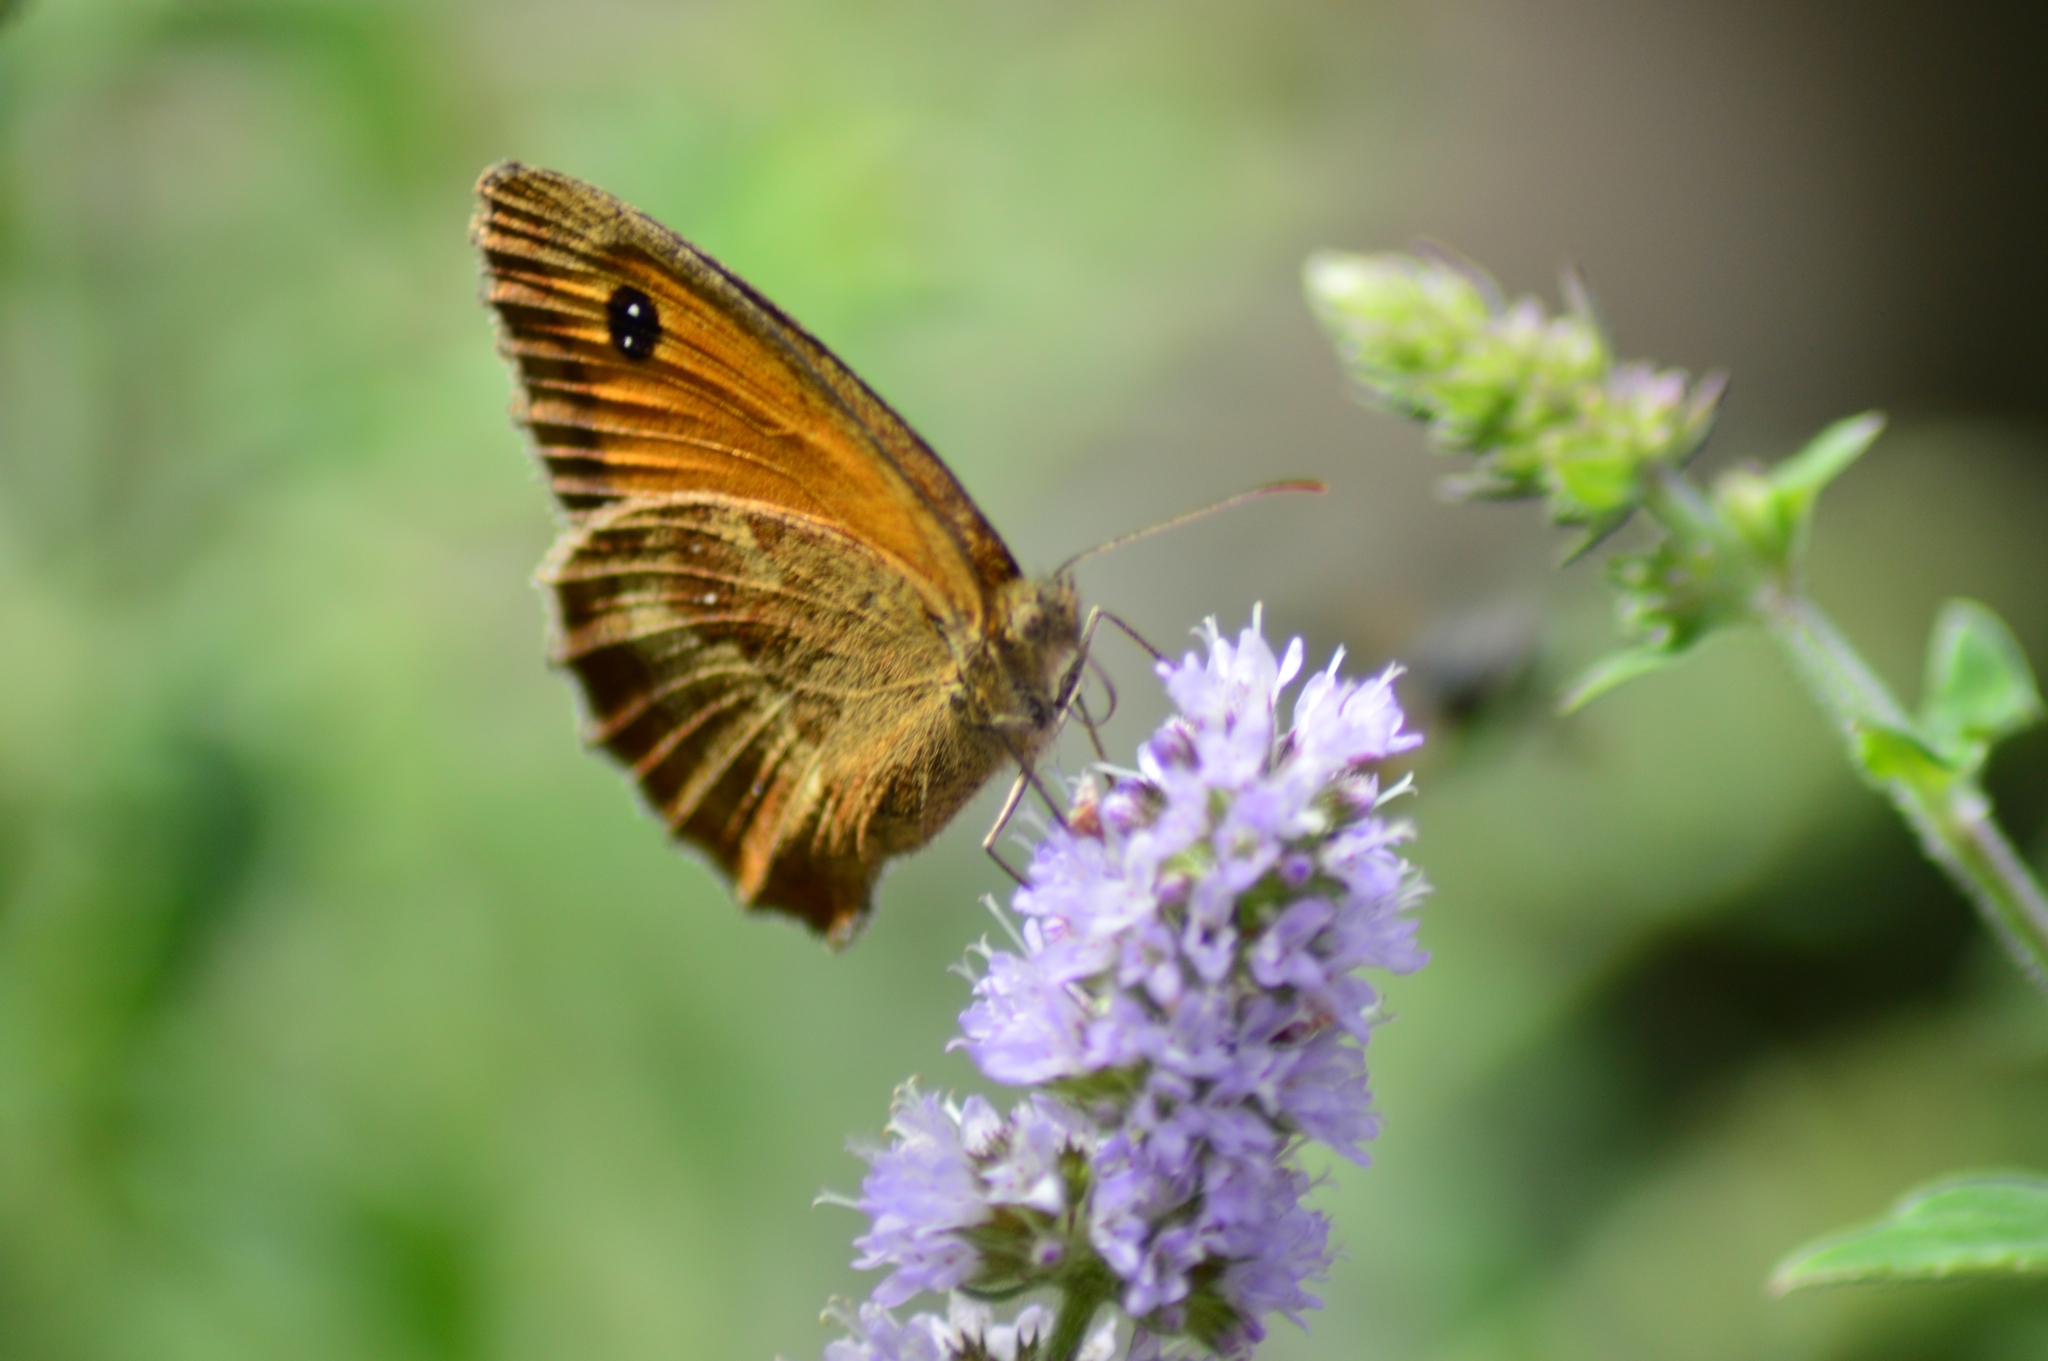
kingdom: Animalia
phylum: Arthropoda
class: Insecta
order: Lepidoptera
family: Nymphalidae
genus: Pyronia
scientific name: Pyronia tithonus
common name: Gatekeeper
